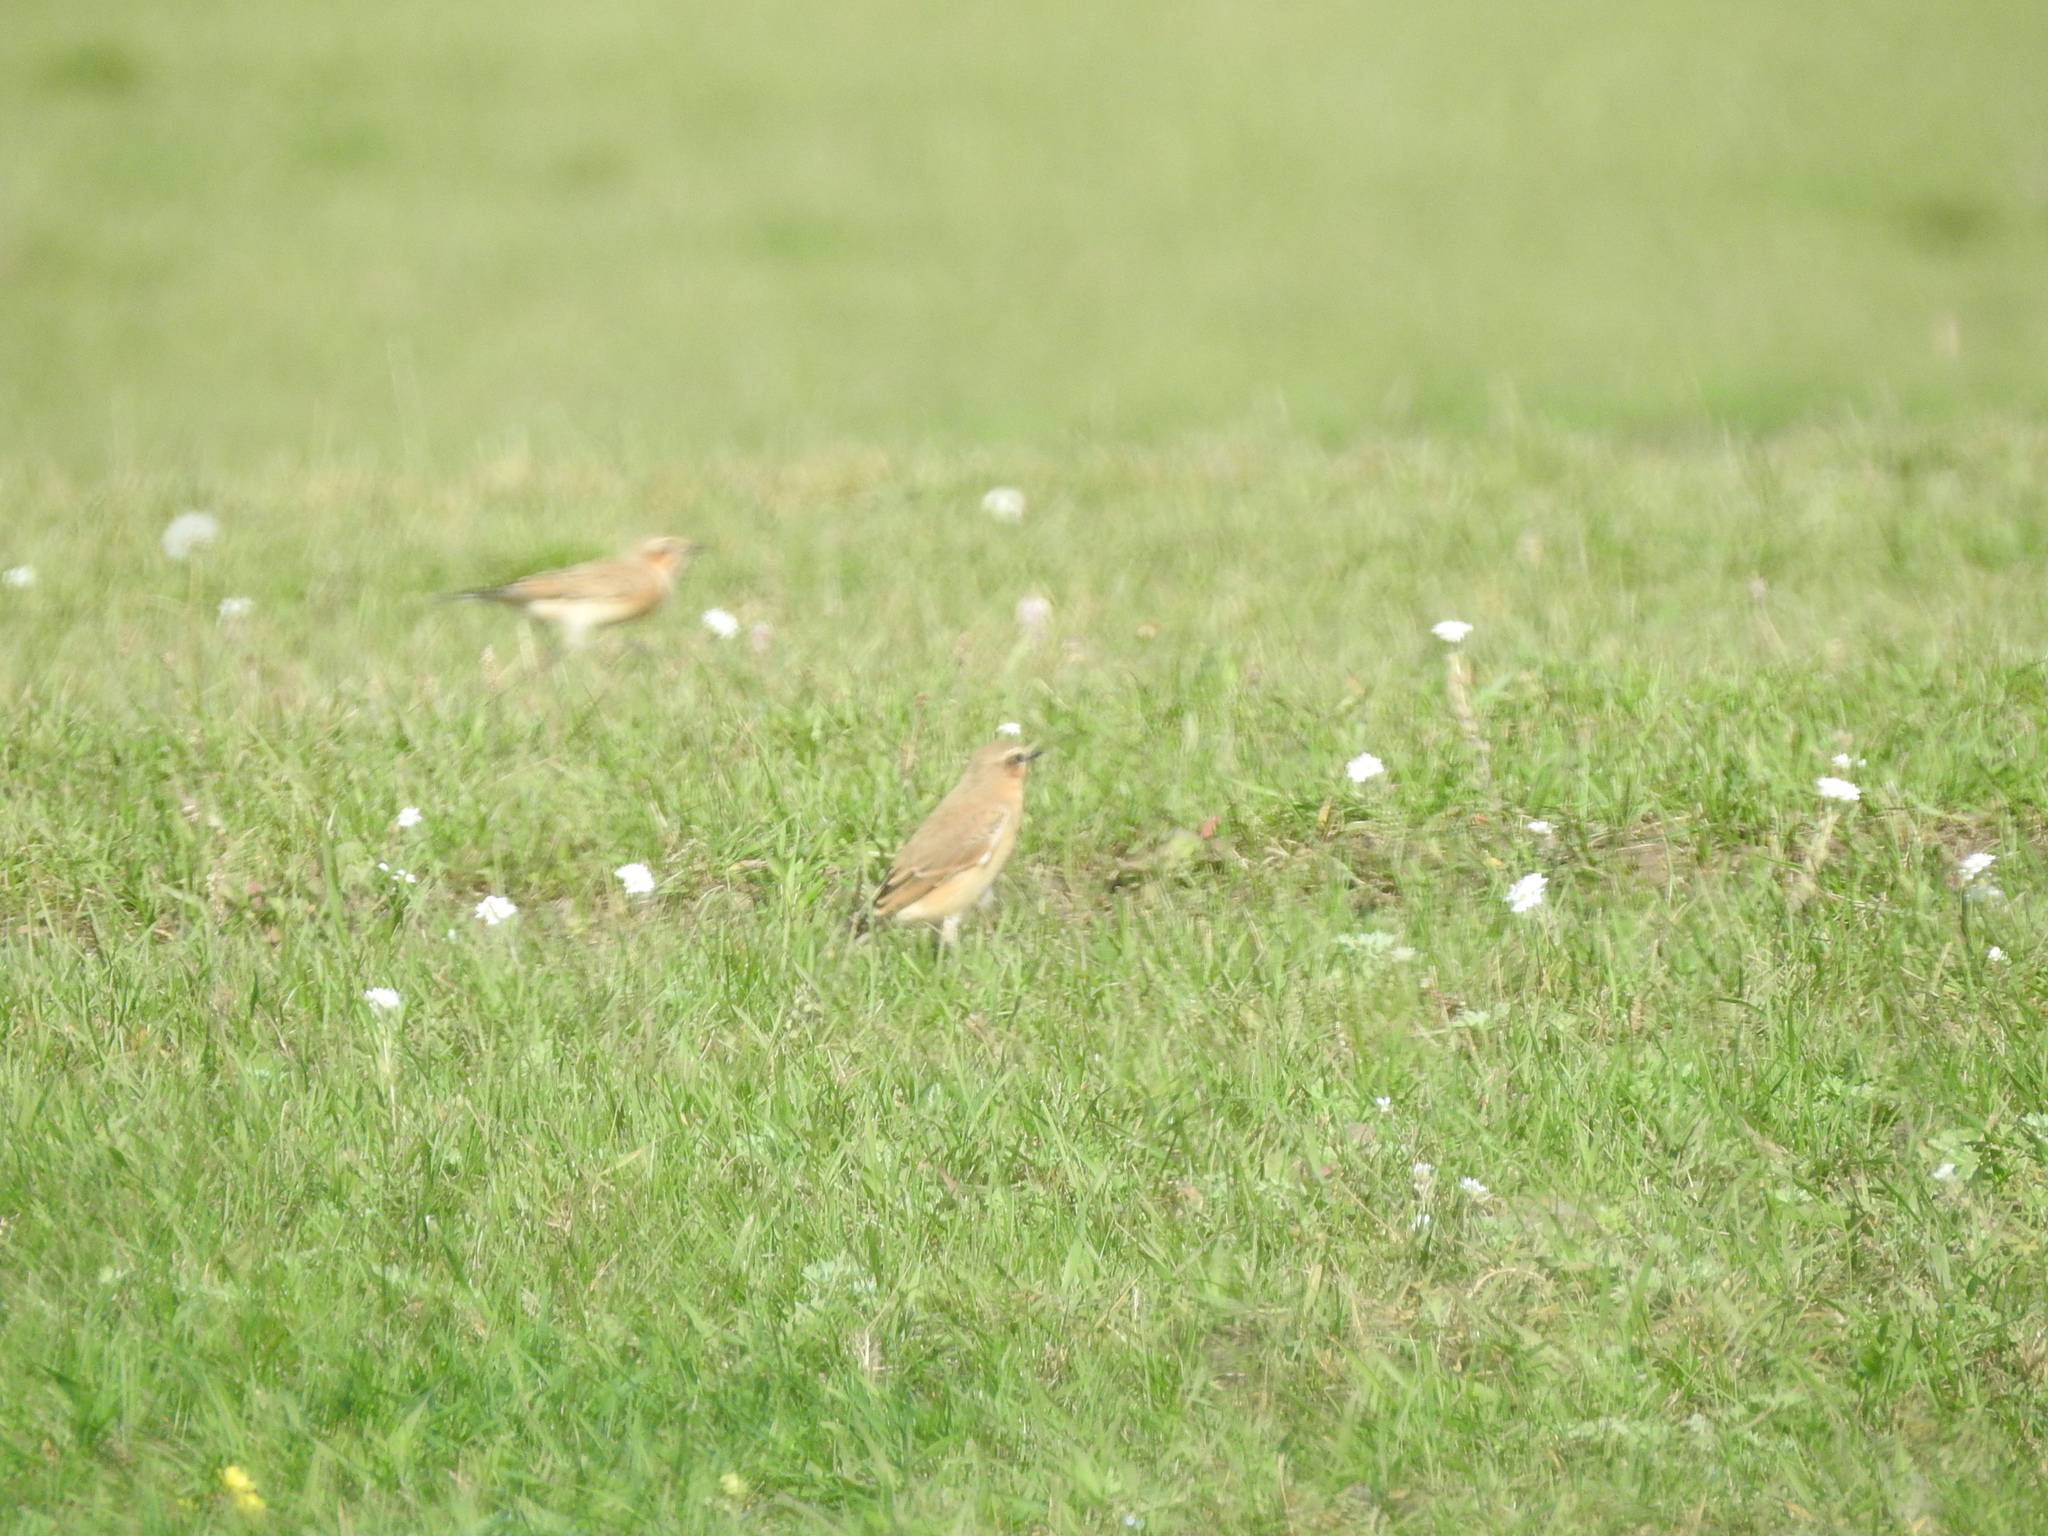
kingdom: Animalia
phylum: Chordata
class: Aves
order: Passeriformes
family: Muscicapidae
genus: Oenanthe
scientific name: Oenanthe oenanthe
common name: Northern wheatear
